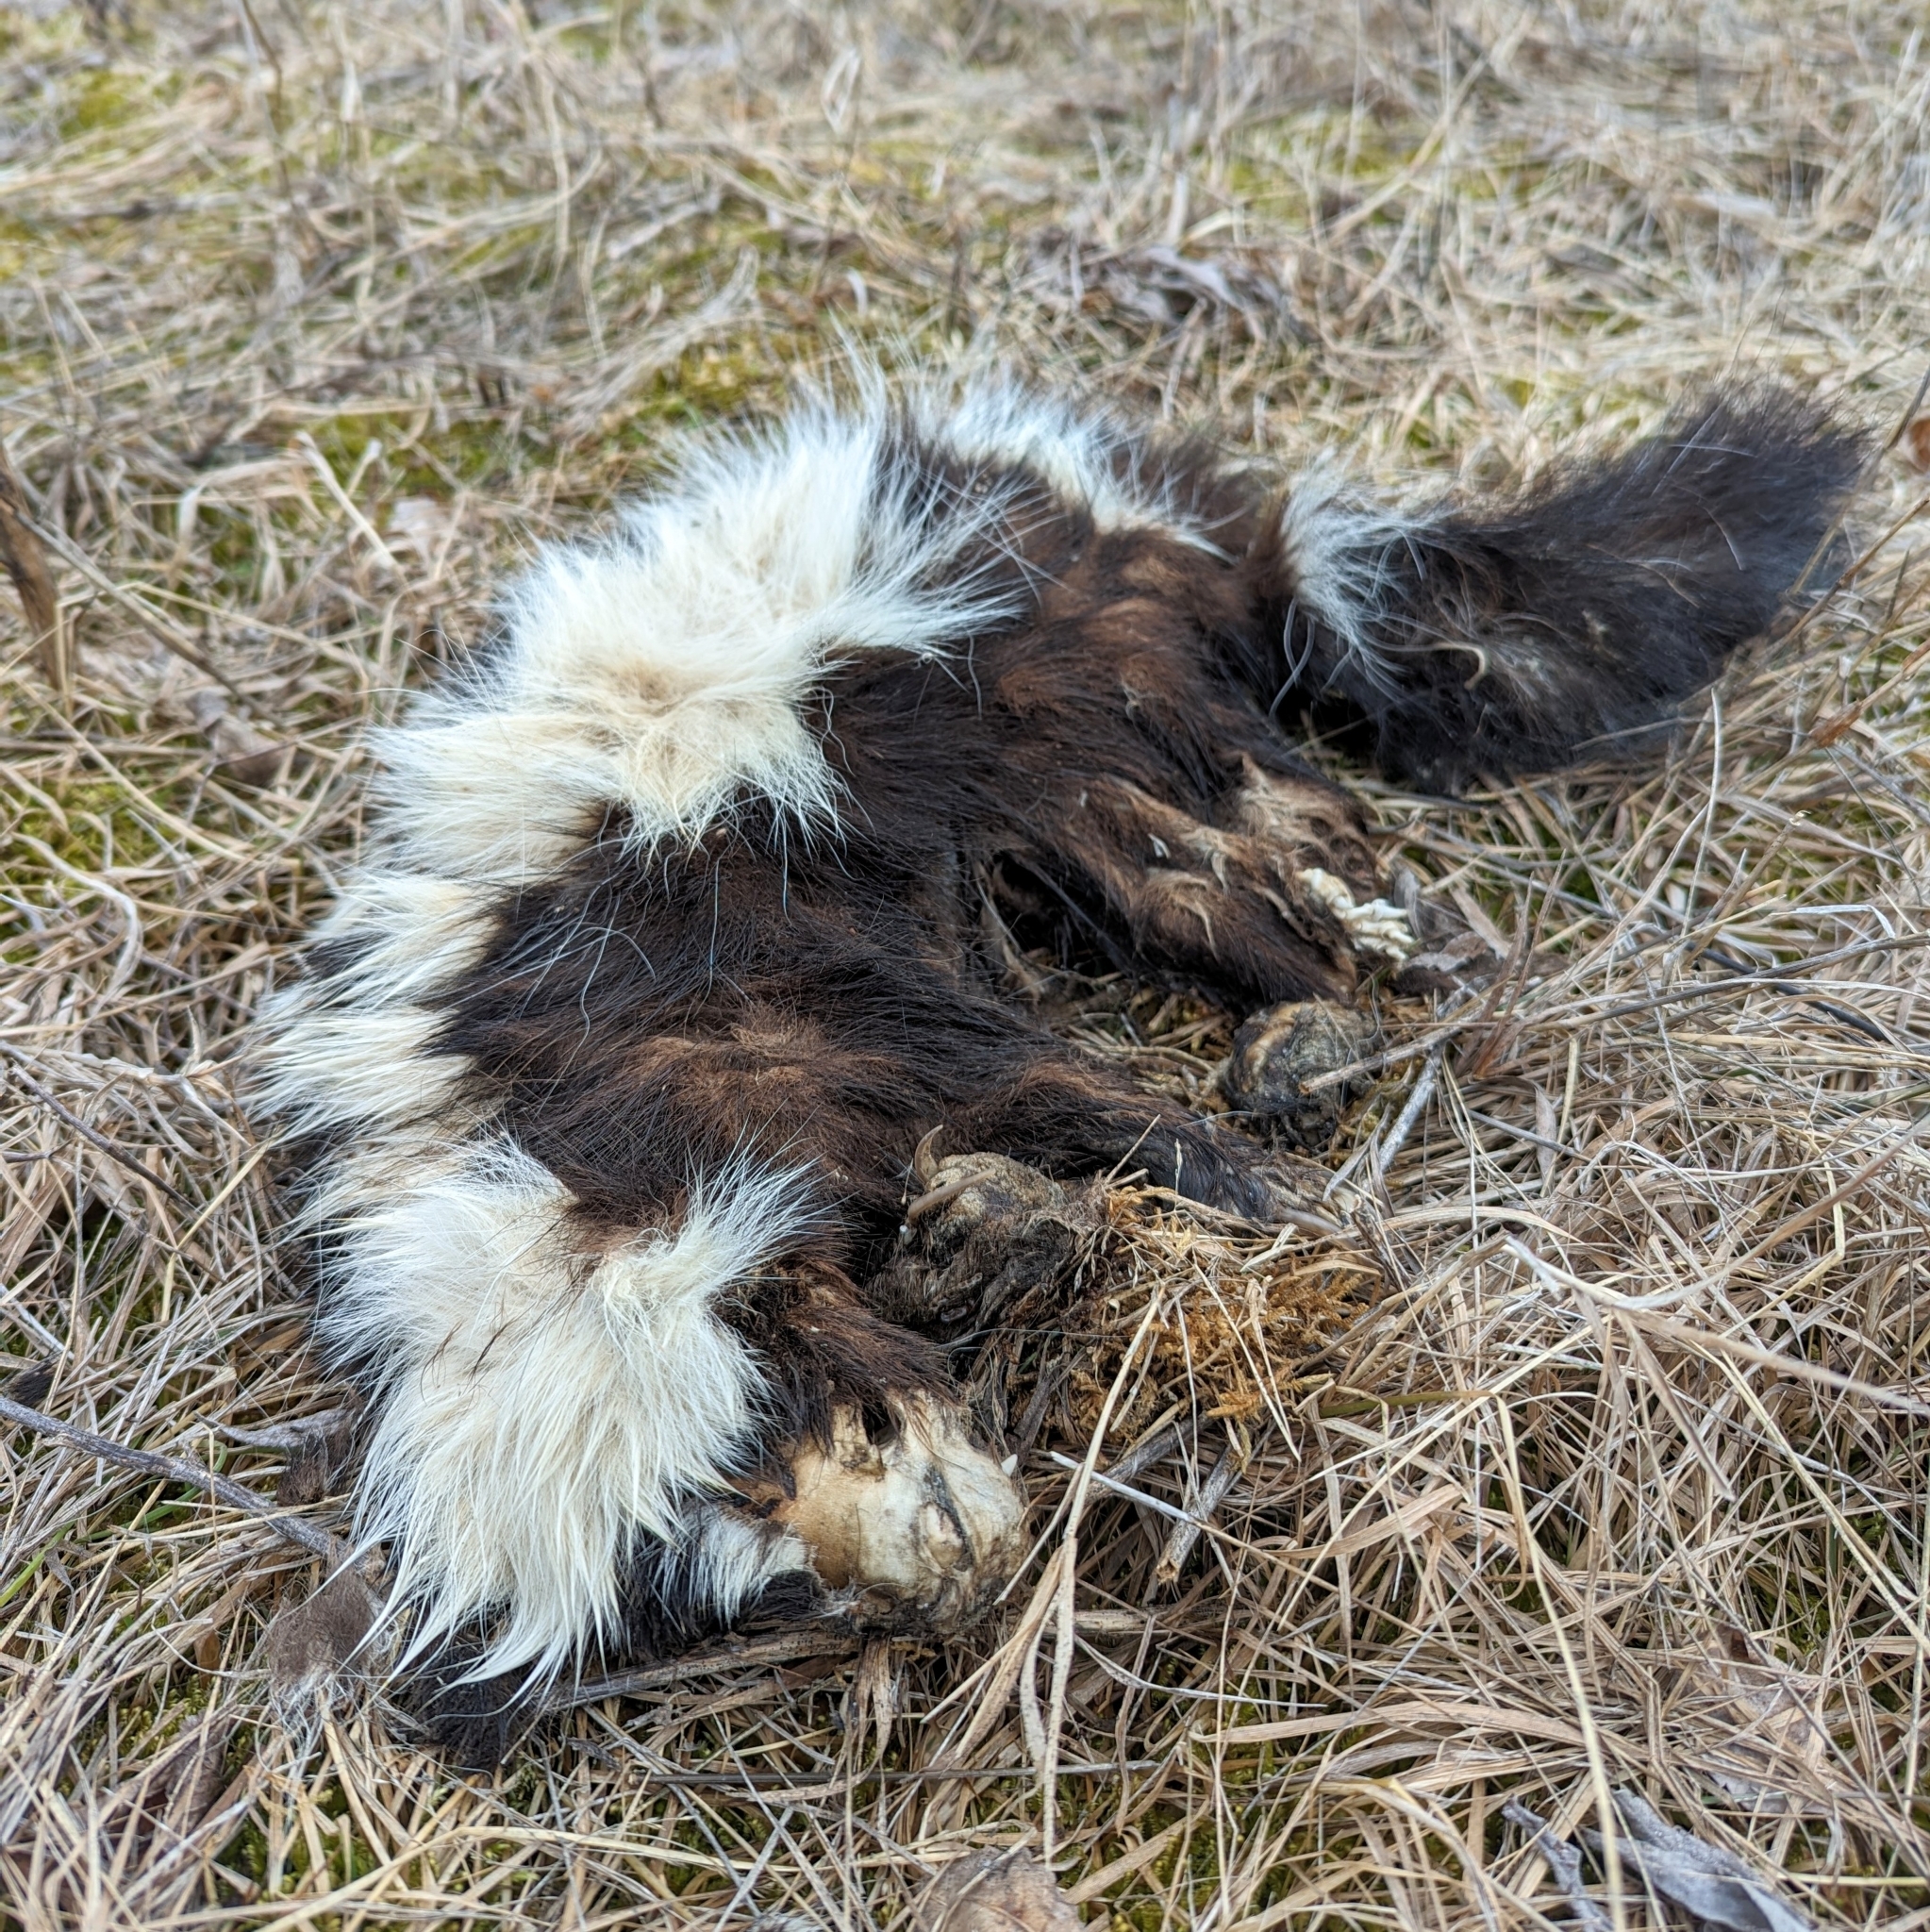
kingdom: Animalia
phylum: Chordata
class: Mammalia
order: Carnivora
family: Mephitidae
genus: Mephitis
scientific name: Mephitis mephitis
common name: Striped skunk
